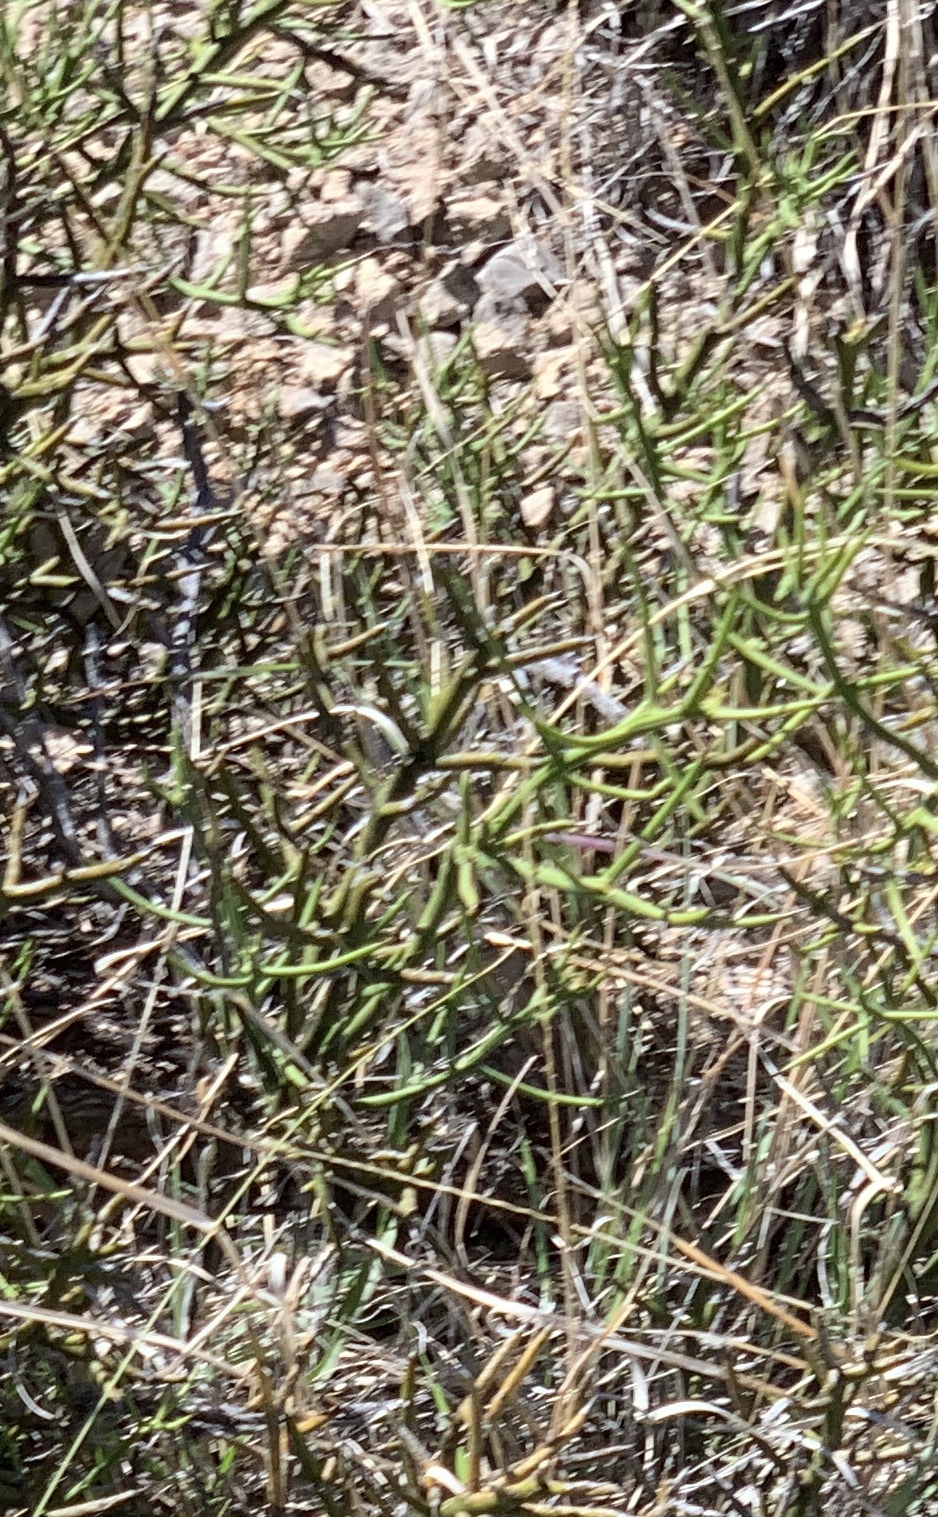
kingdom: Plantae
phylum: Tracheophyta
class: Magnoliopsida
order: Brassicales
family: Koeberliniaceae
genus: Koeberlinia
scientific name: Koeberlinia spinosa
